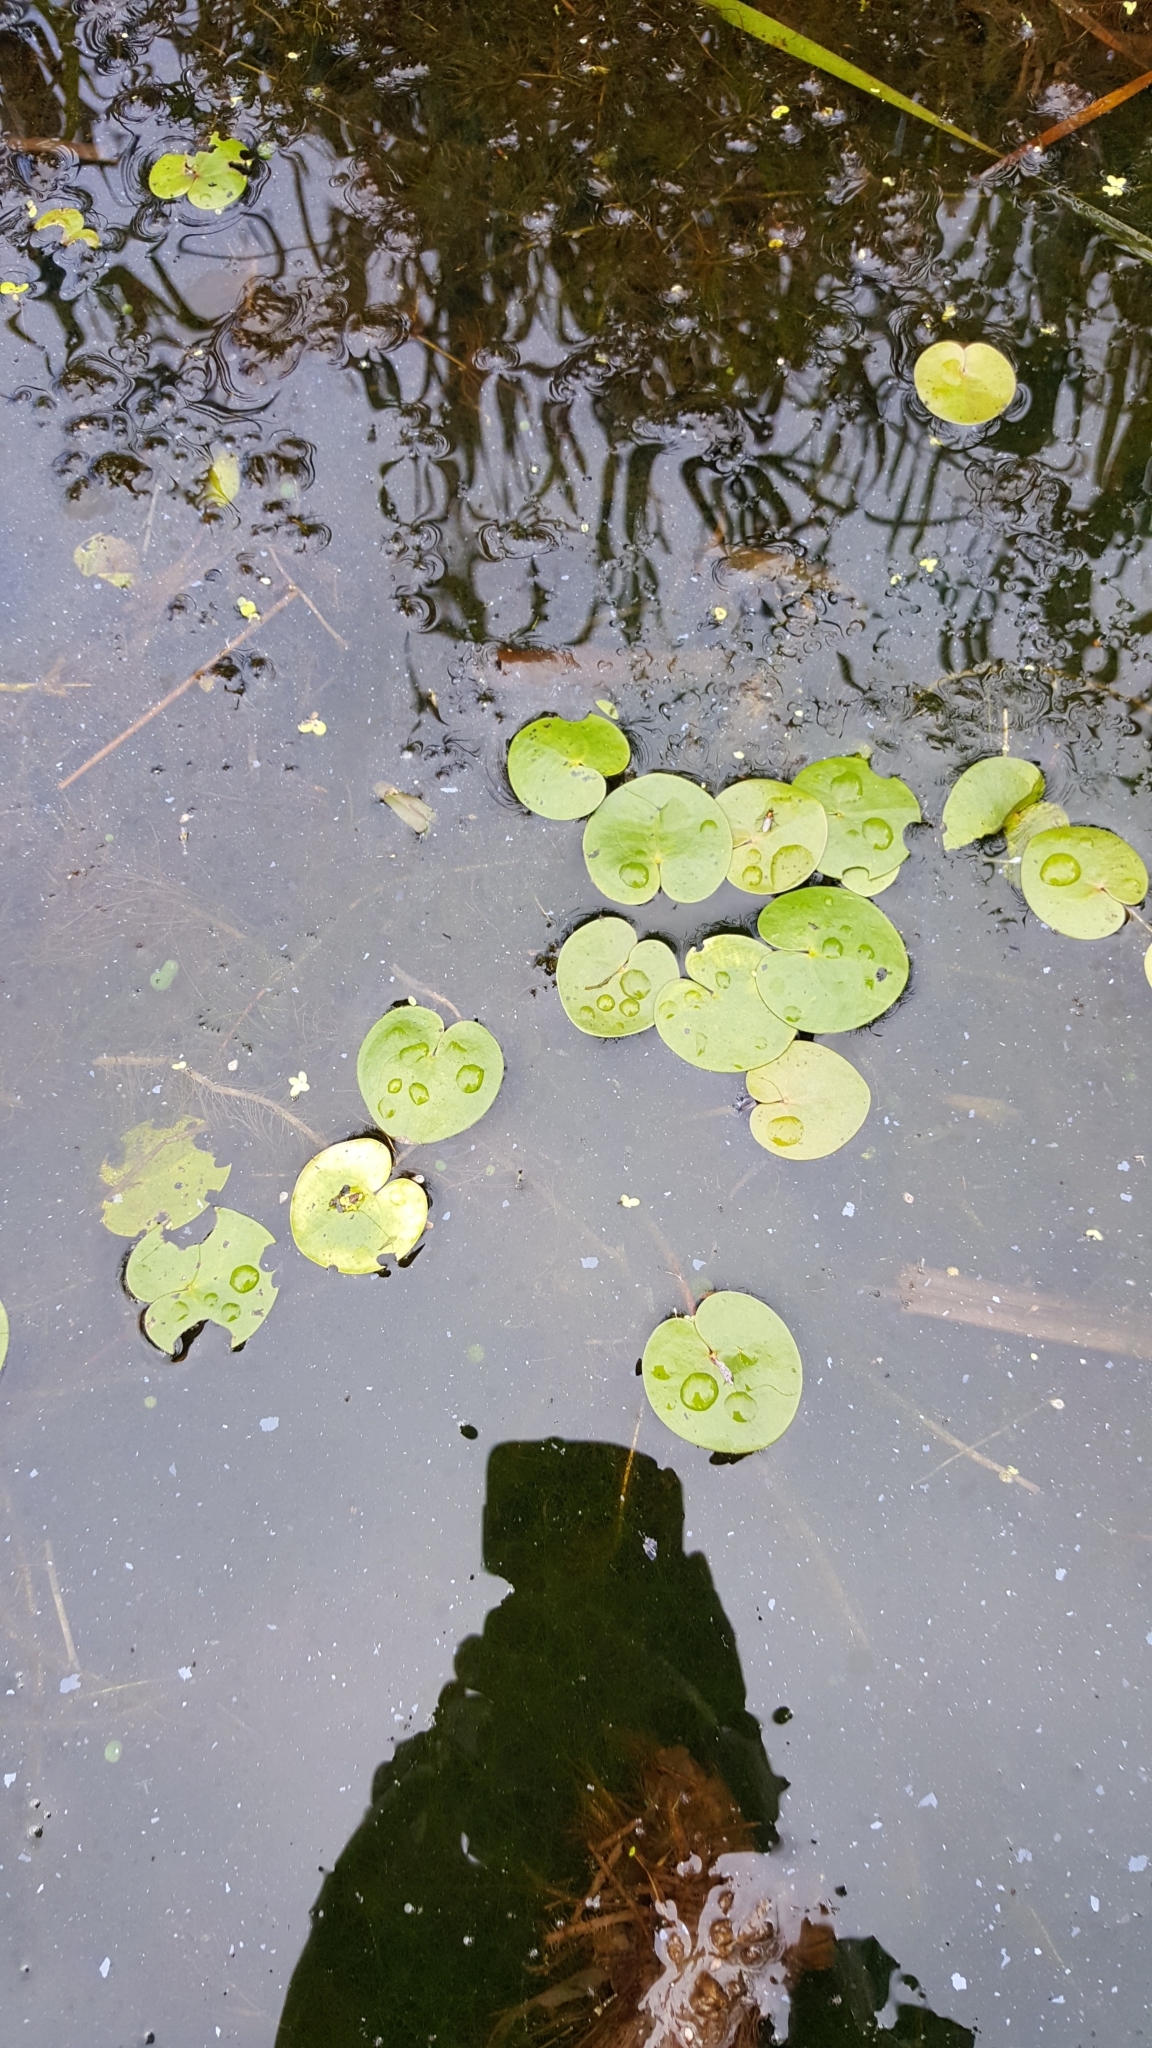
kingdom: Plantae
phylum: Tracheophyta
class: Liliopsida
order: Alismatales
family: Hydrocharitaceae
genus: Hydrocharis
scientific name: Hydrocharis morsus-ranae
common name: Frogbit
